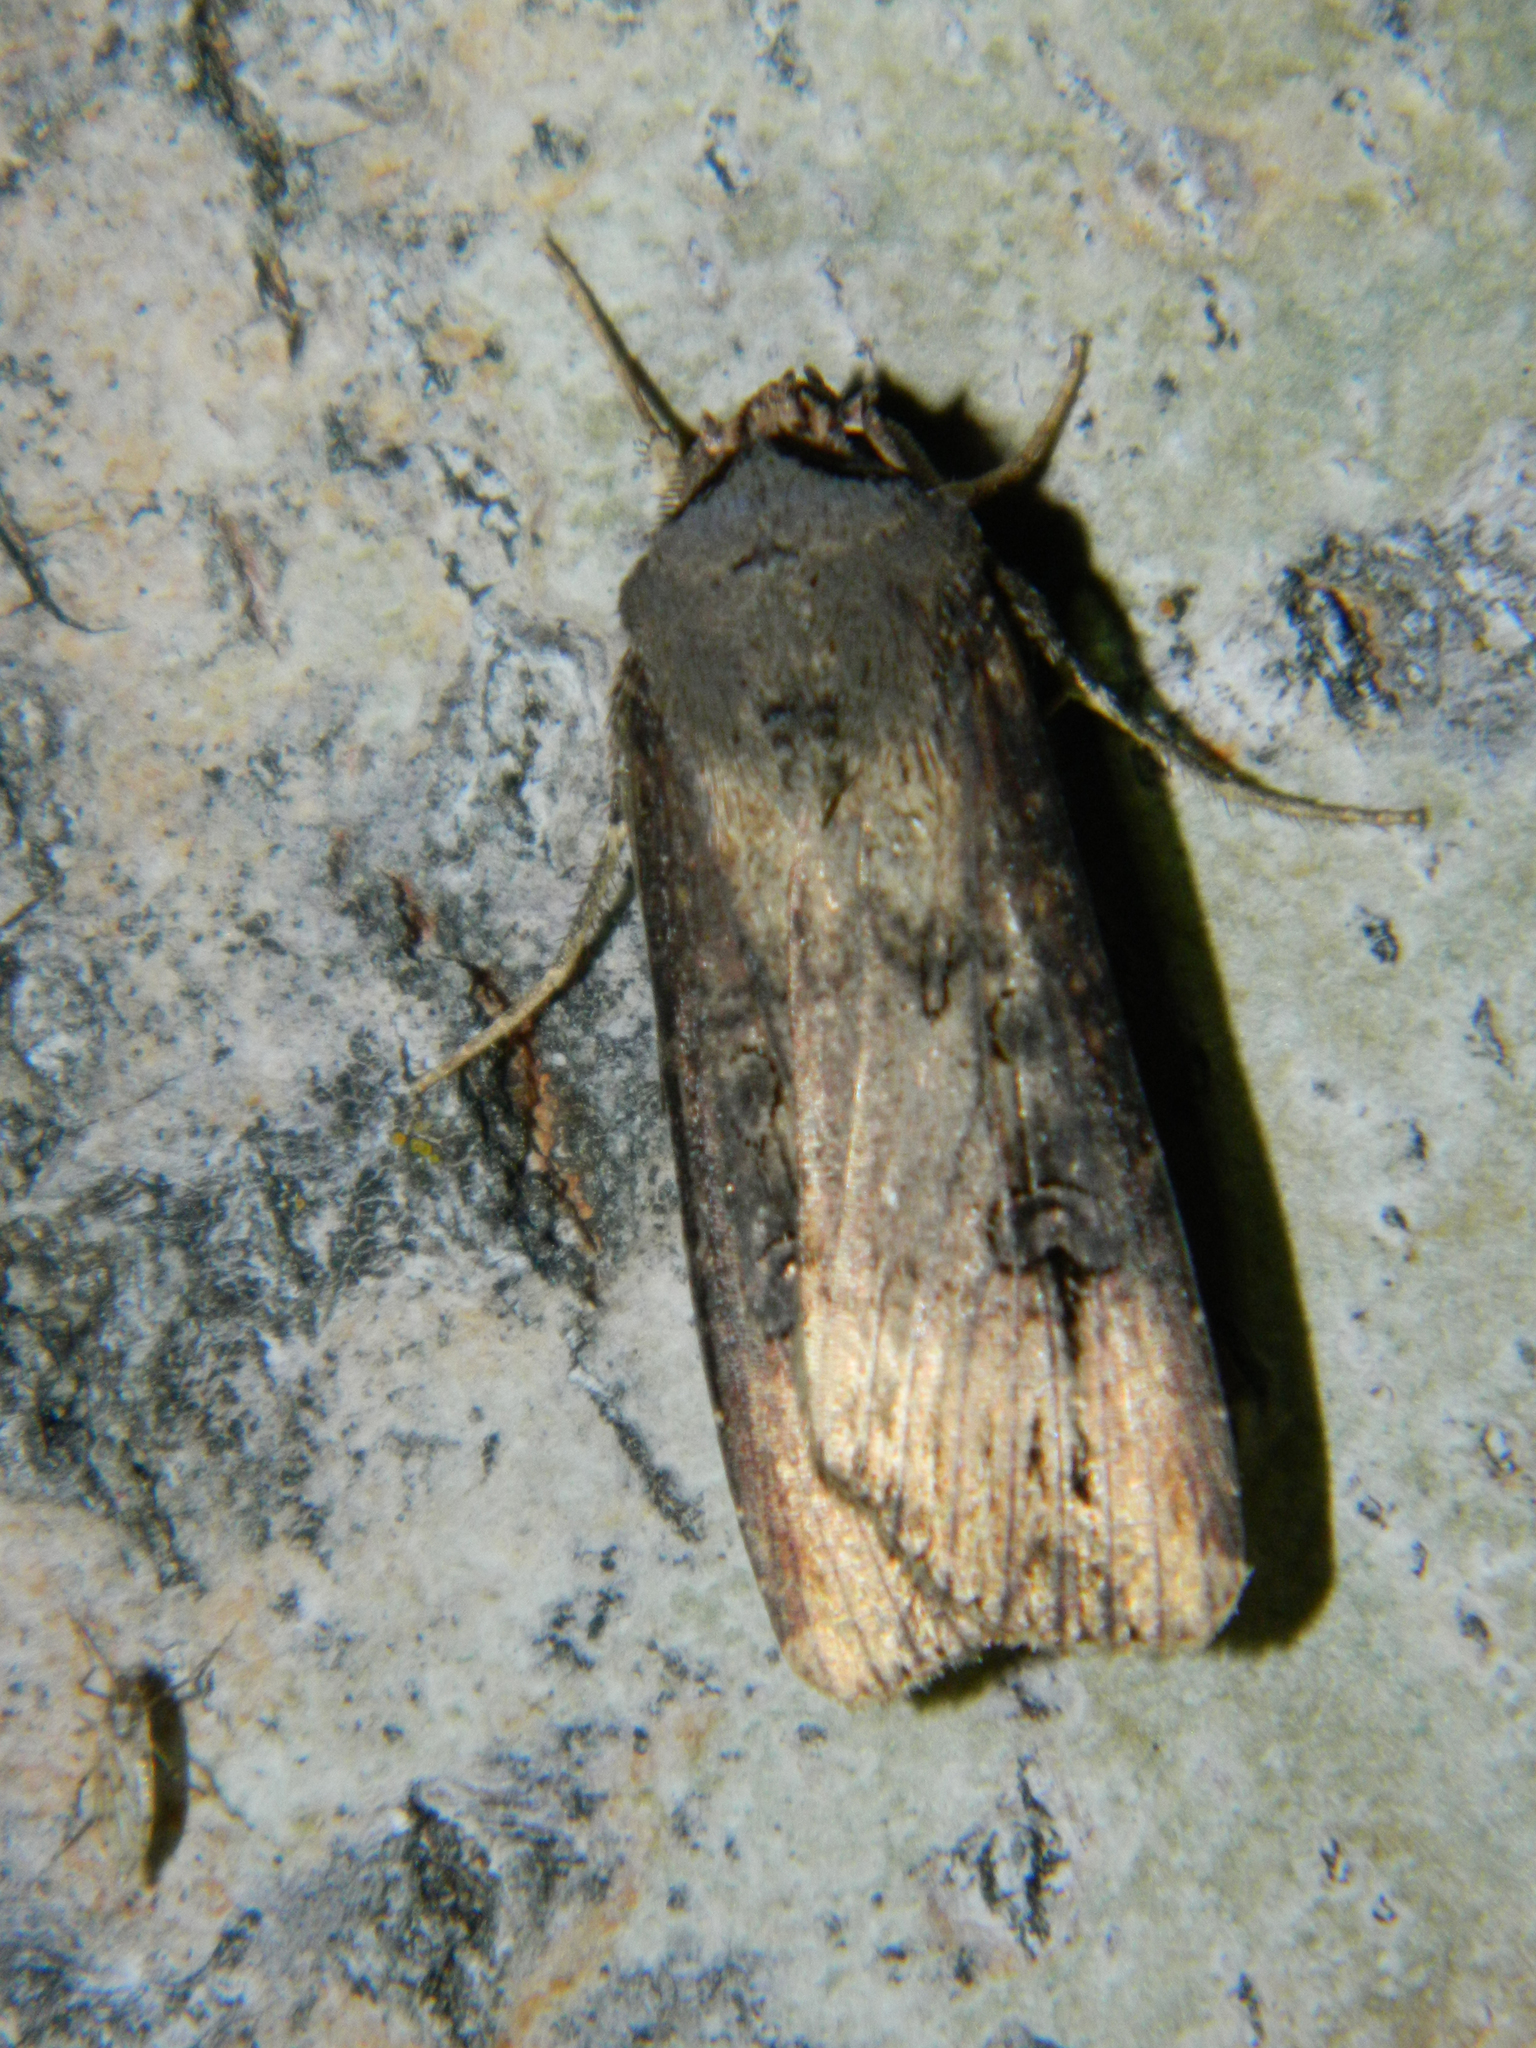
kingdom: Animalia
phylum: Arthropoda
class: Insecta
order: Lepidoptera
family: Noctuidae
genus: Agrotis
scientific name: Agrotis ipsilon
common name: Dark sword-grass
